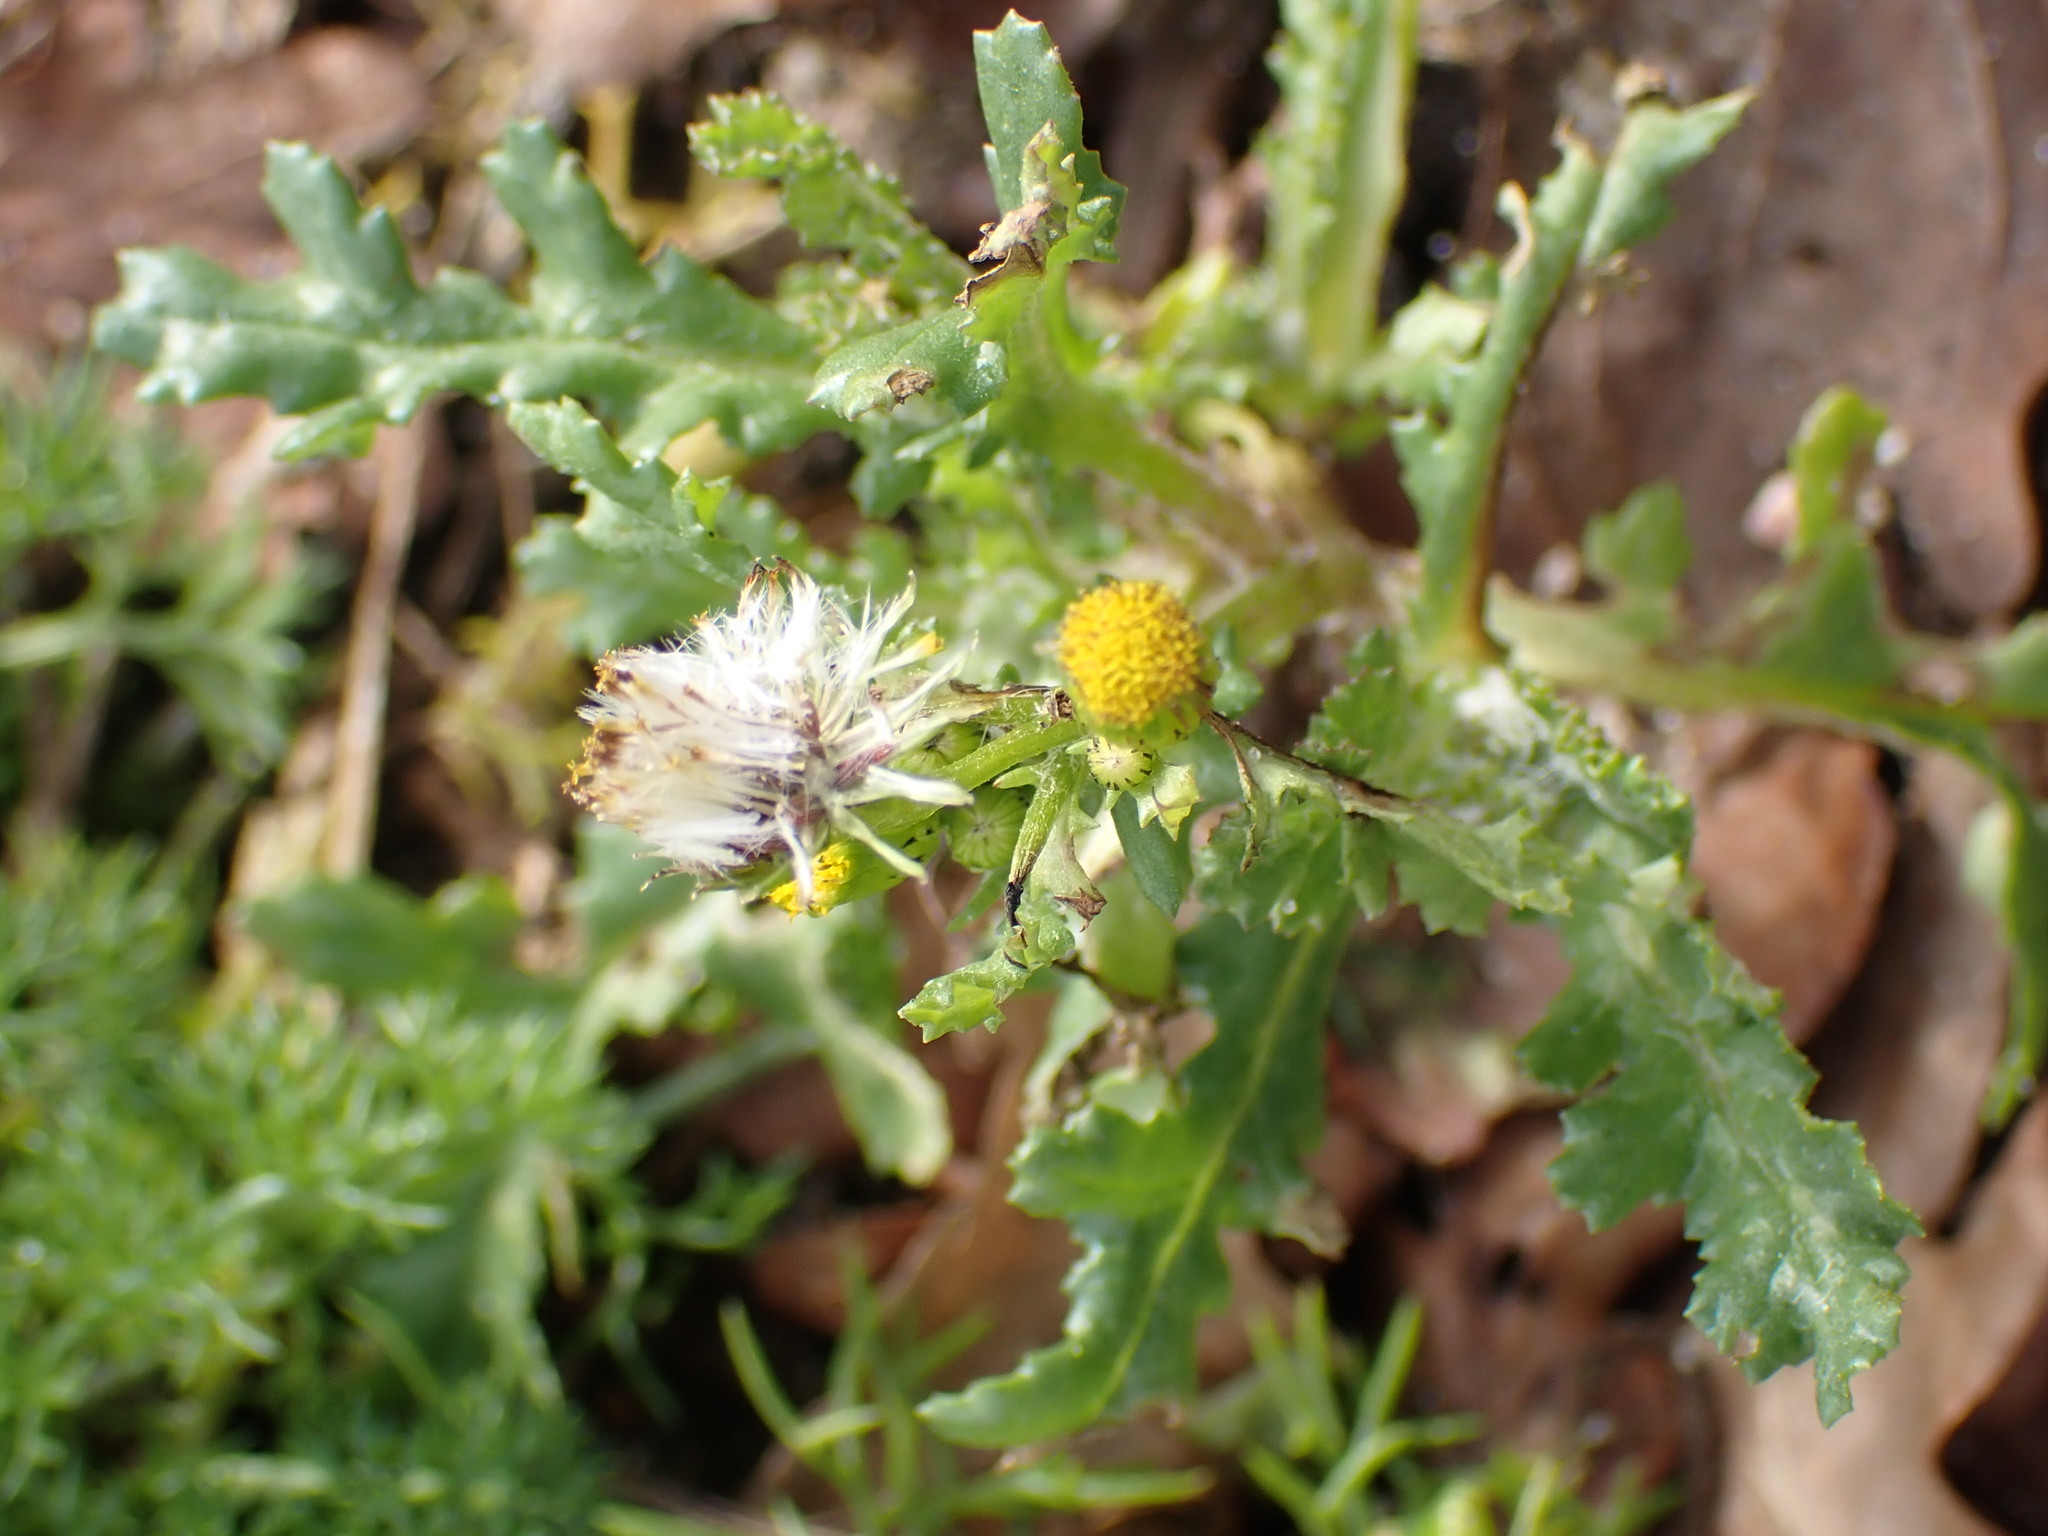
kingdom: Plantae
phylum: Tracheophyta
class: Magnoliopsida
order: Asterales
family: Asteraceae
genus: Senecio
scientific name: Senecio vulgaris
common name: Old-man-in-the-spring
